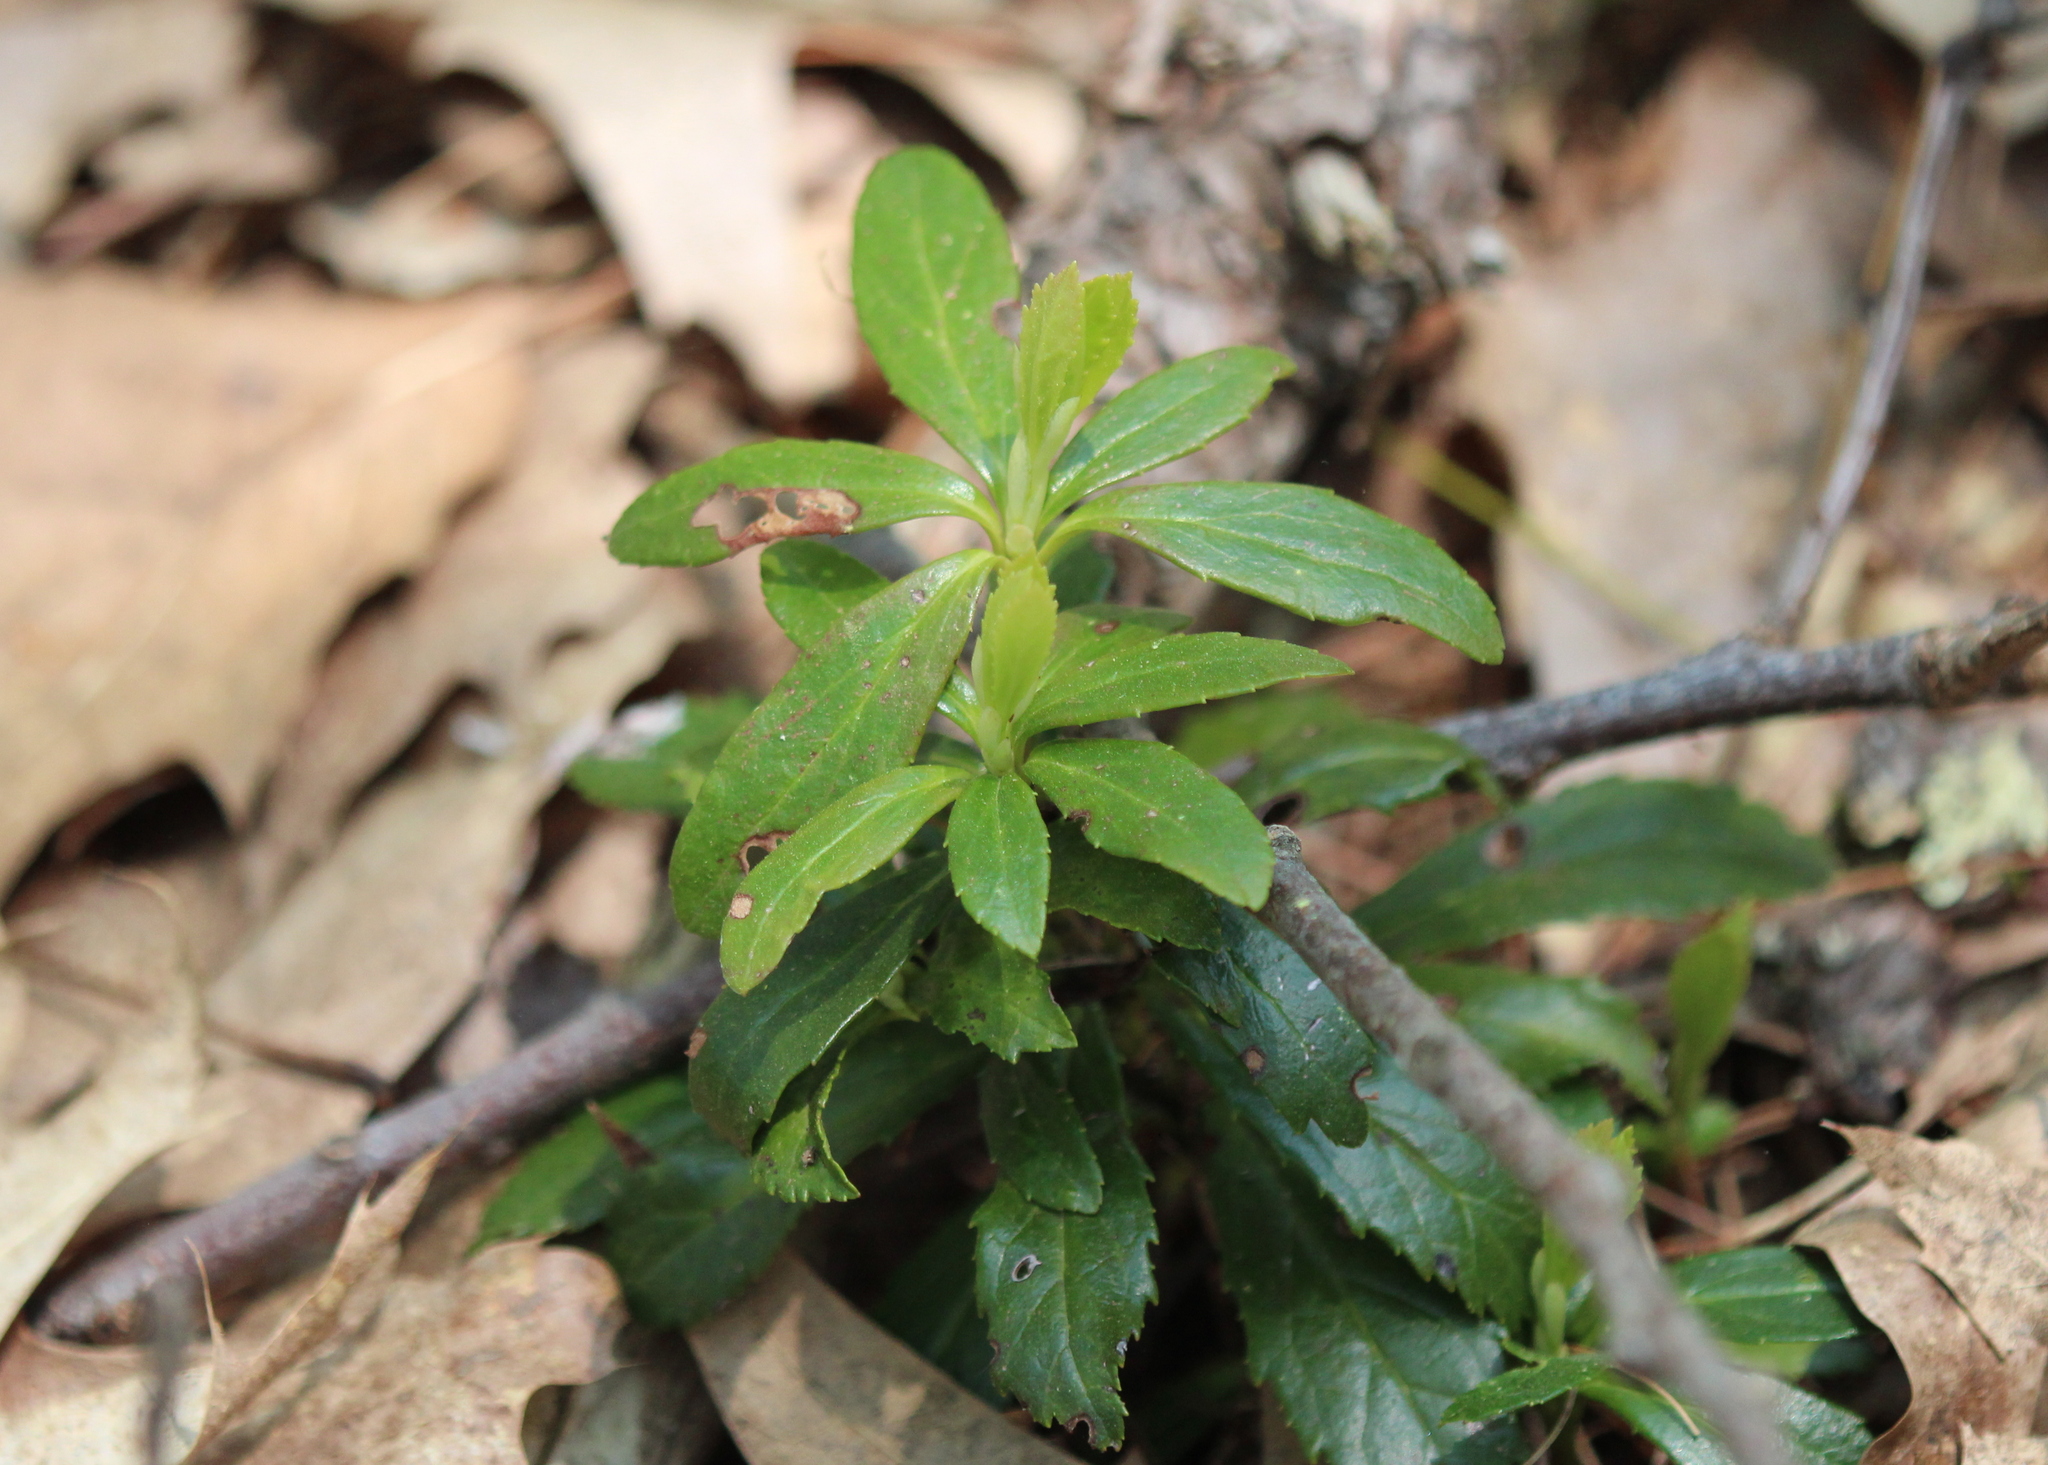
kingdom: Plantae
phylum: Tracheophyta
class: Magnoliopsida
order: Ericales
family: Ericaceae
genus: Chimaphila
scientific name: Chimaphila umbellata
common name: Pipsissewa
